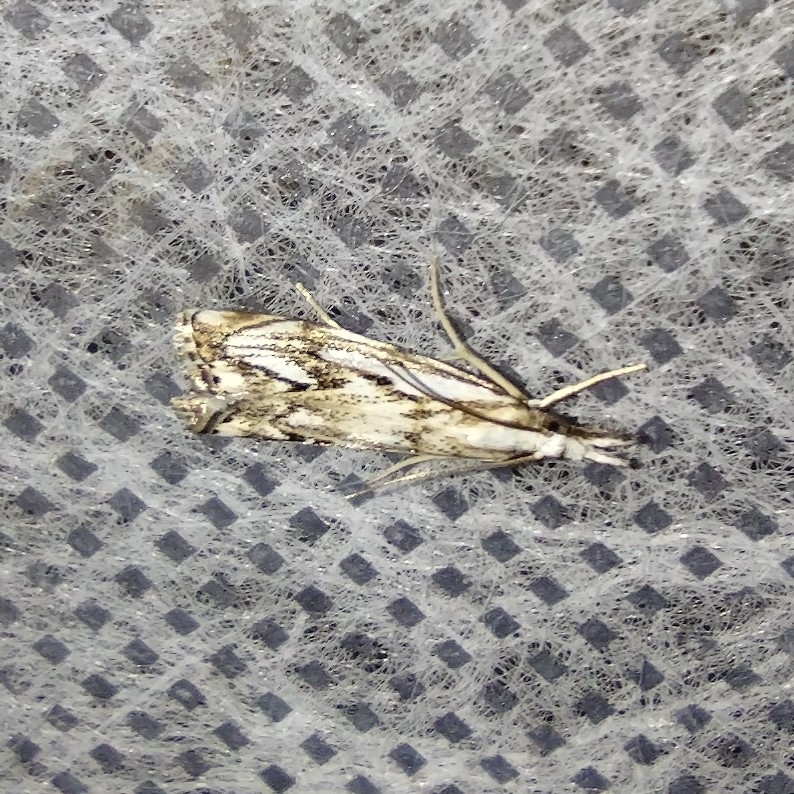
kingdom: Animalia
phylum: Arthropoda
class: Insecta
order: Lepidoptera
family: Crambidae
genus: Catoptria
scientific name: Catoptria falsella
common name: Chequered grass-veneer
